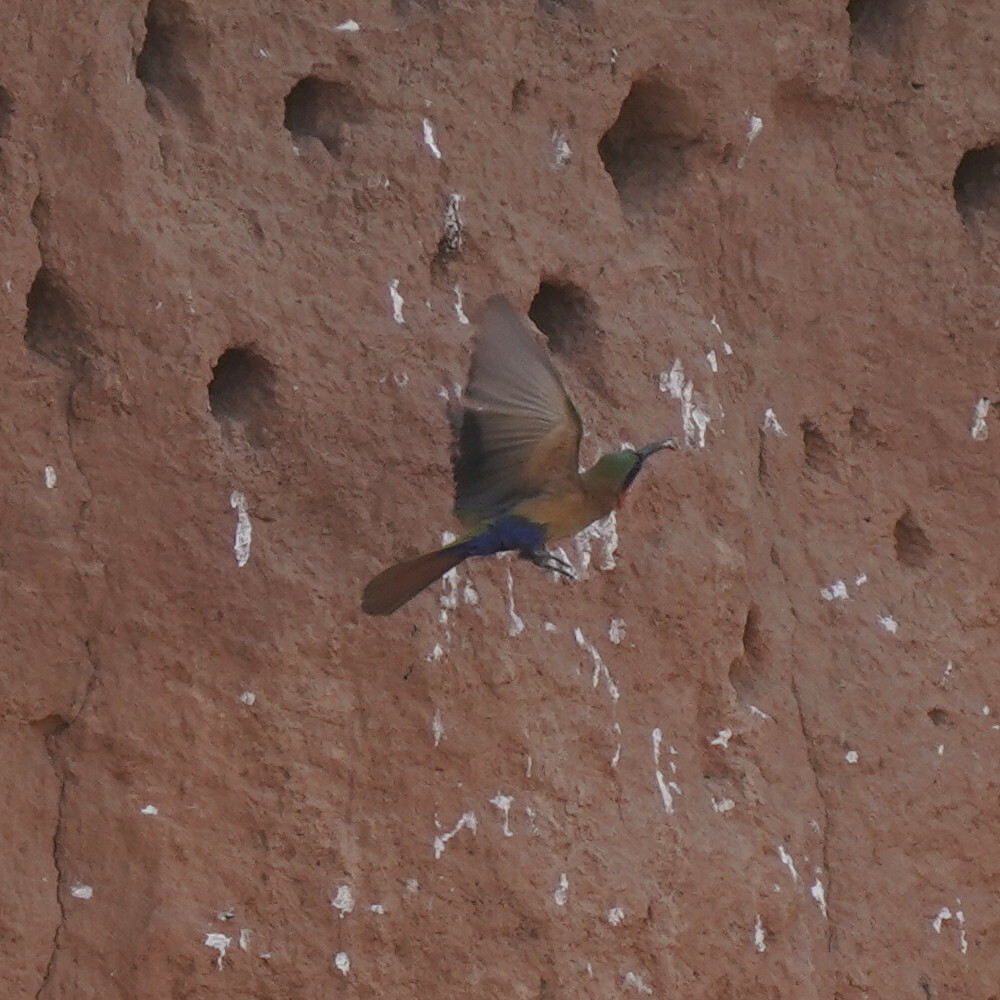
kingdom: Animalia
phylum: Chordata
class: Aves
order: Coraciiformes
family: Meropidae
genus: Merops
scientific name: Merops bulocki
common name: Red-throated bee-eater
